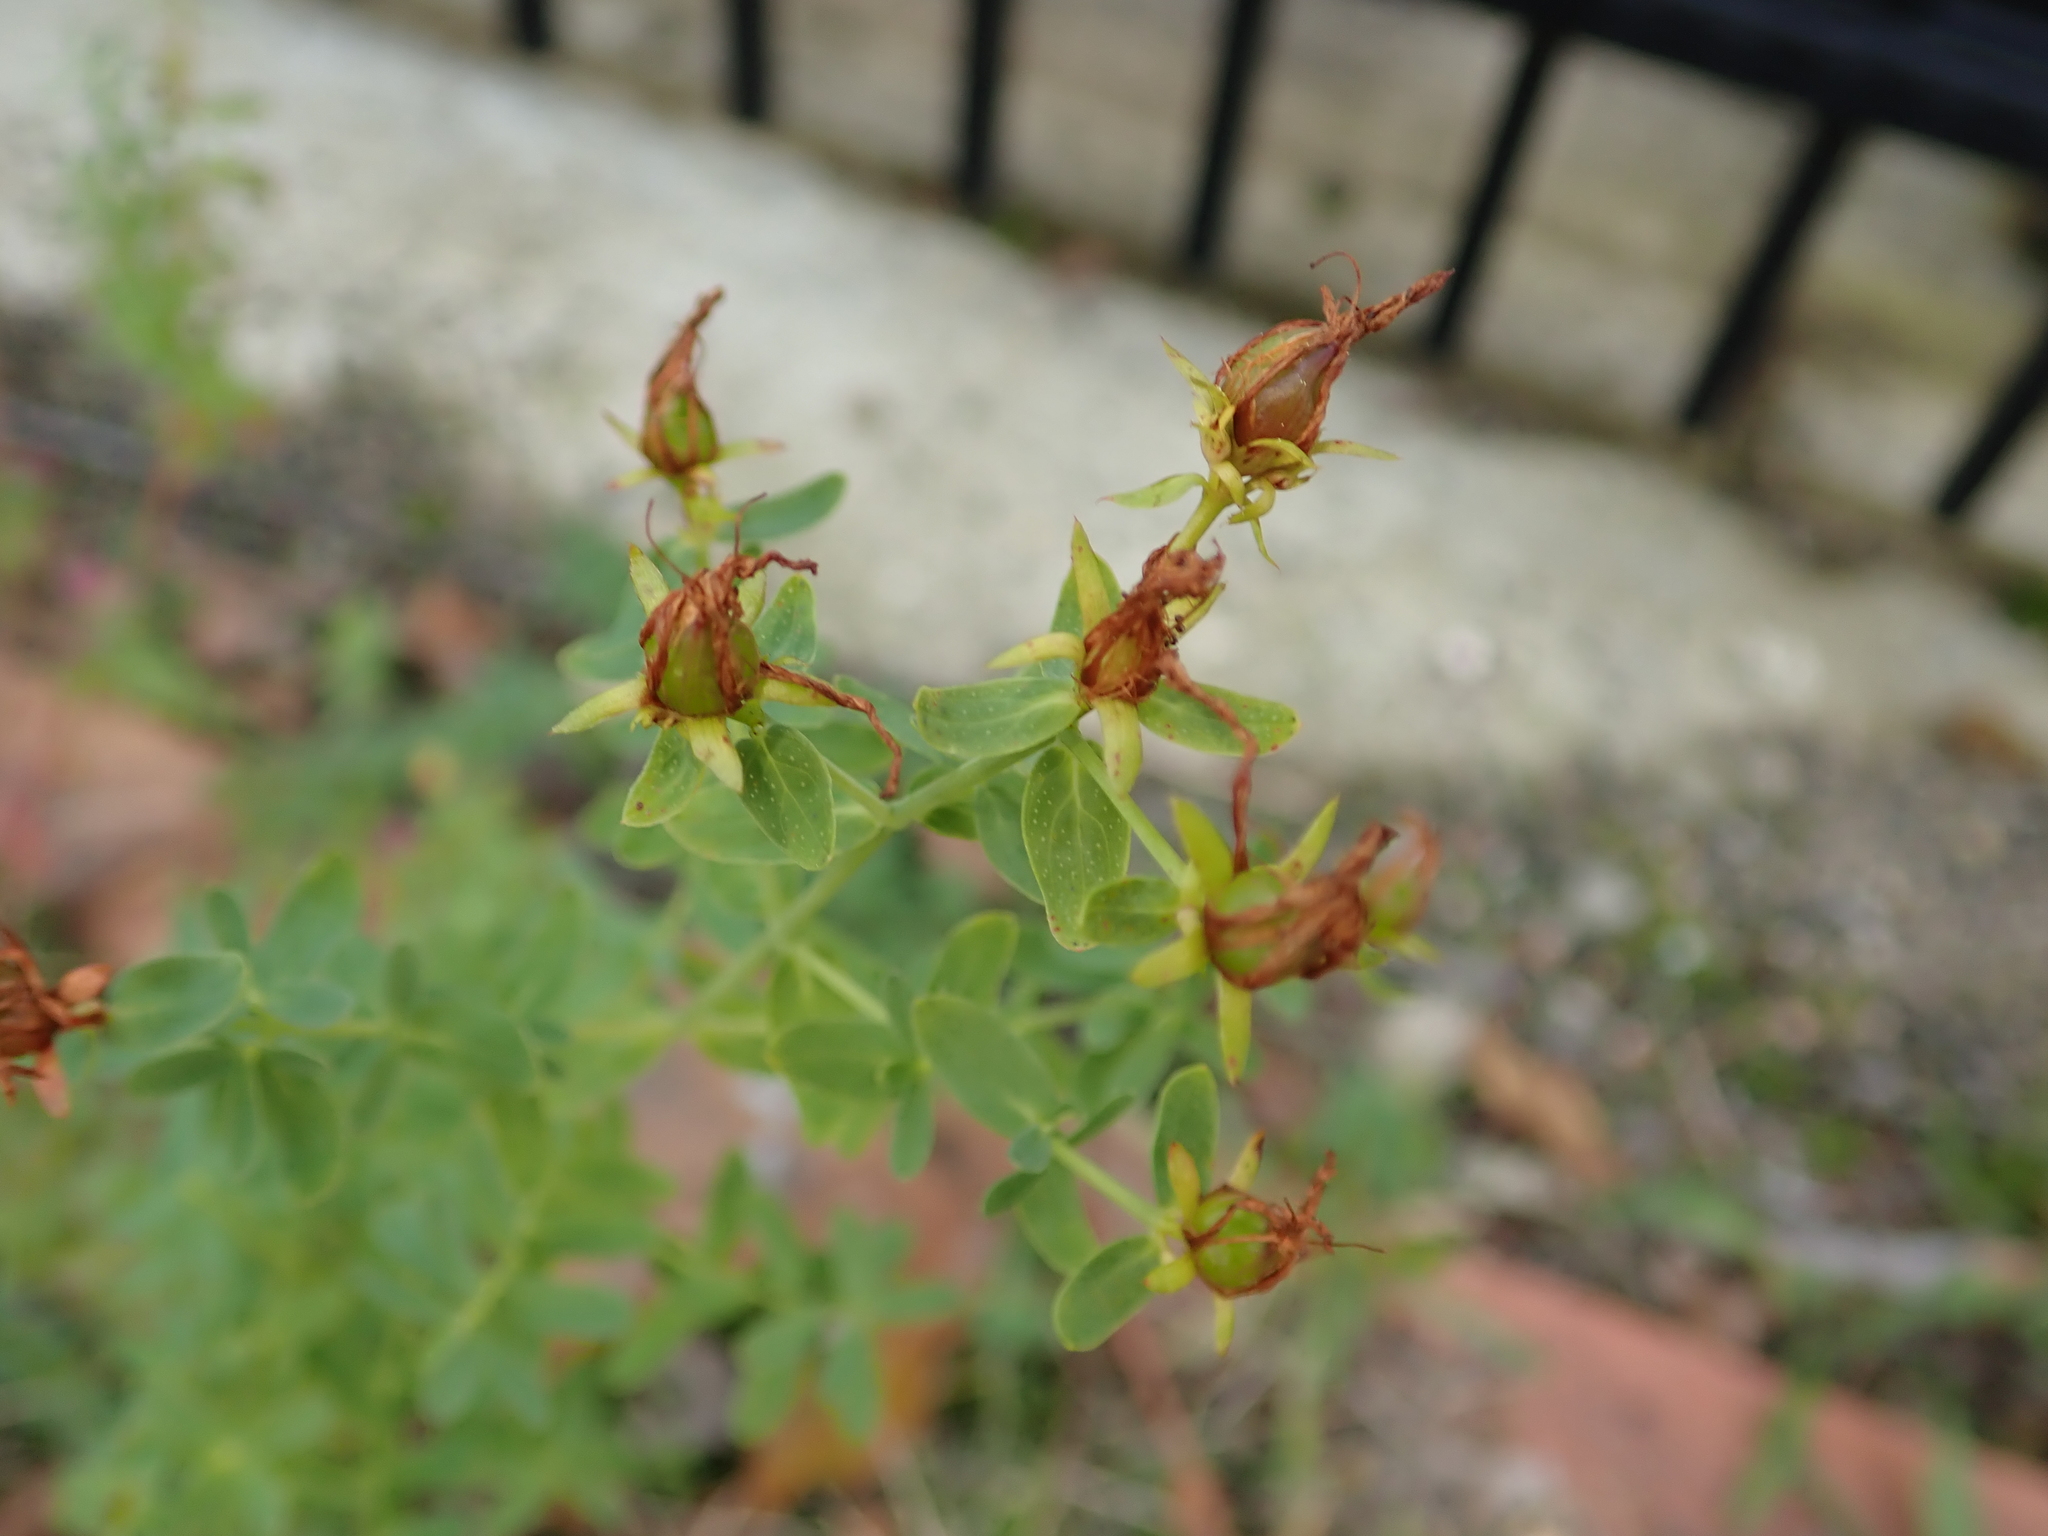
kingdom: Plantae
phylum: Tracheophyta
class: Magnoliopsida
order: Malpighiales
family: Hypericaceae
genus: Hypericum
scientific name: Hypericum perforatum
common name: Common st. johnswort
